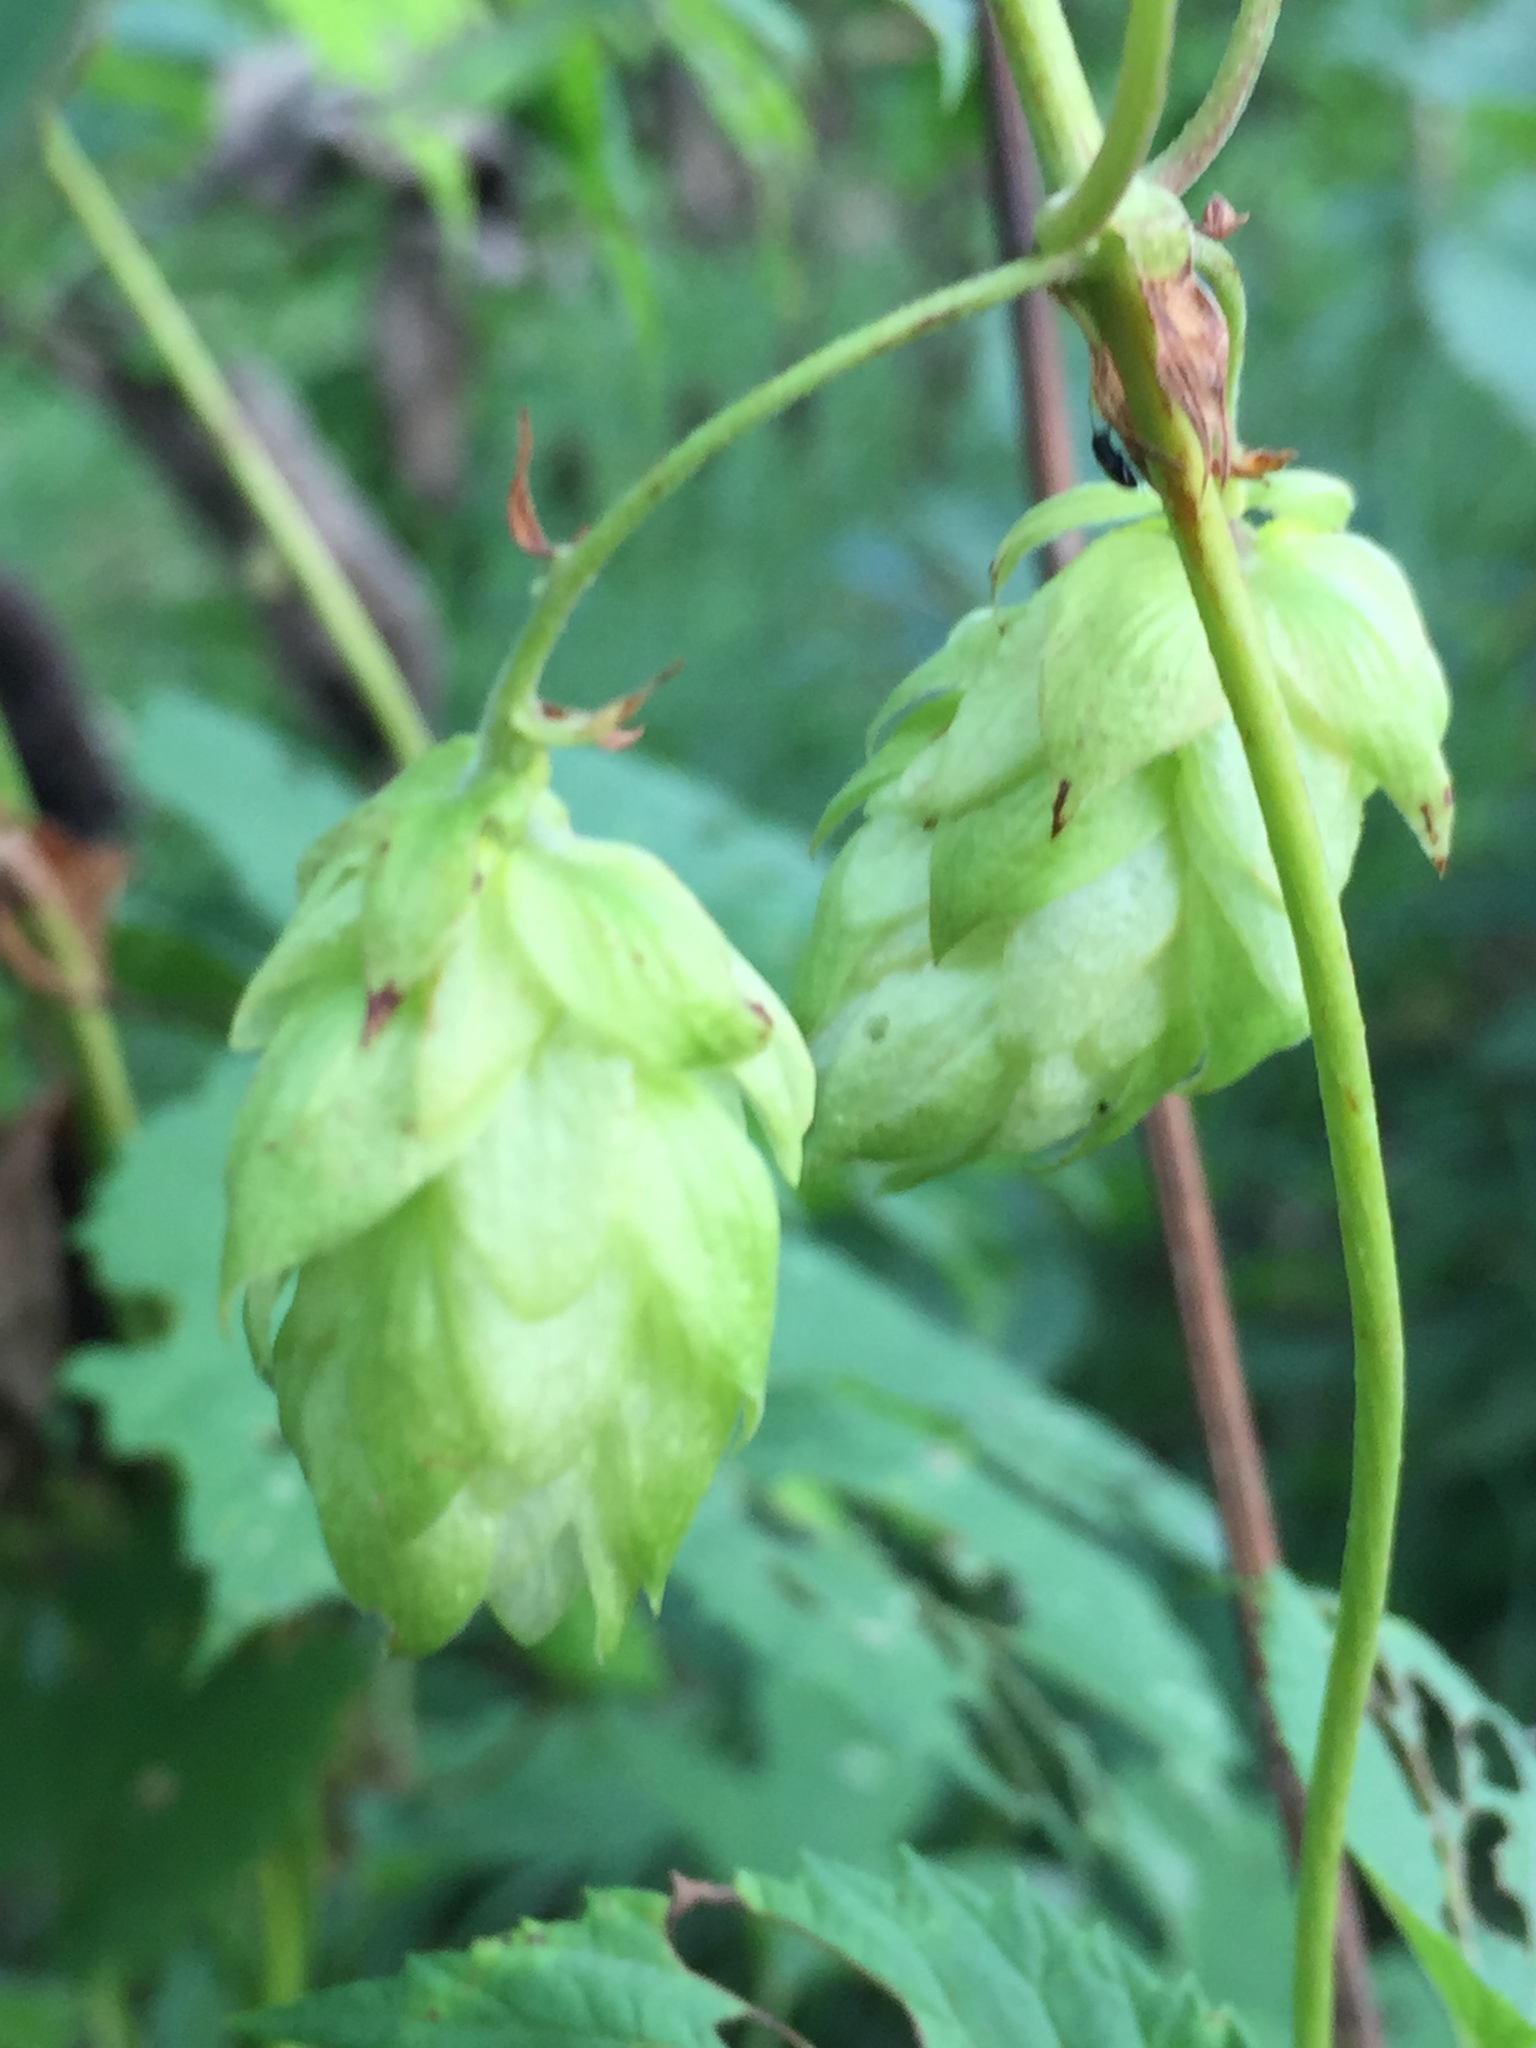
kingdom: Plantae
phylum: Tracheophyta
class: Magnoliopsida
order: Rosales
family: Cannabaceae
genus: Humulus
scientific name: Humulus lupulus
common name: Hop
